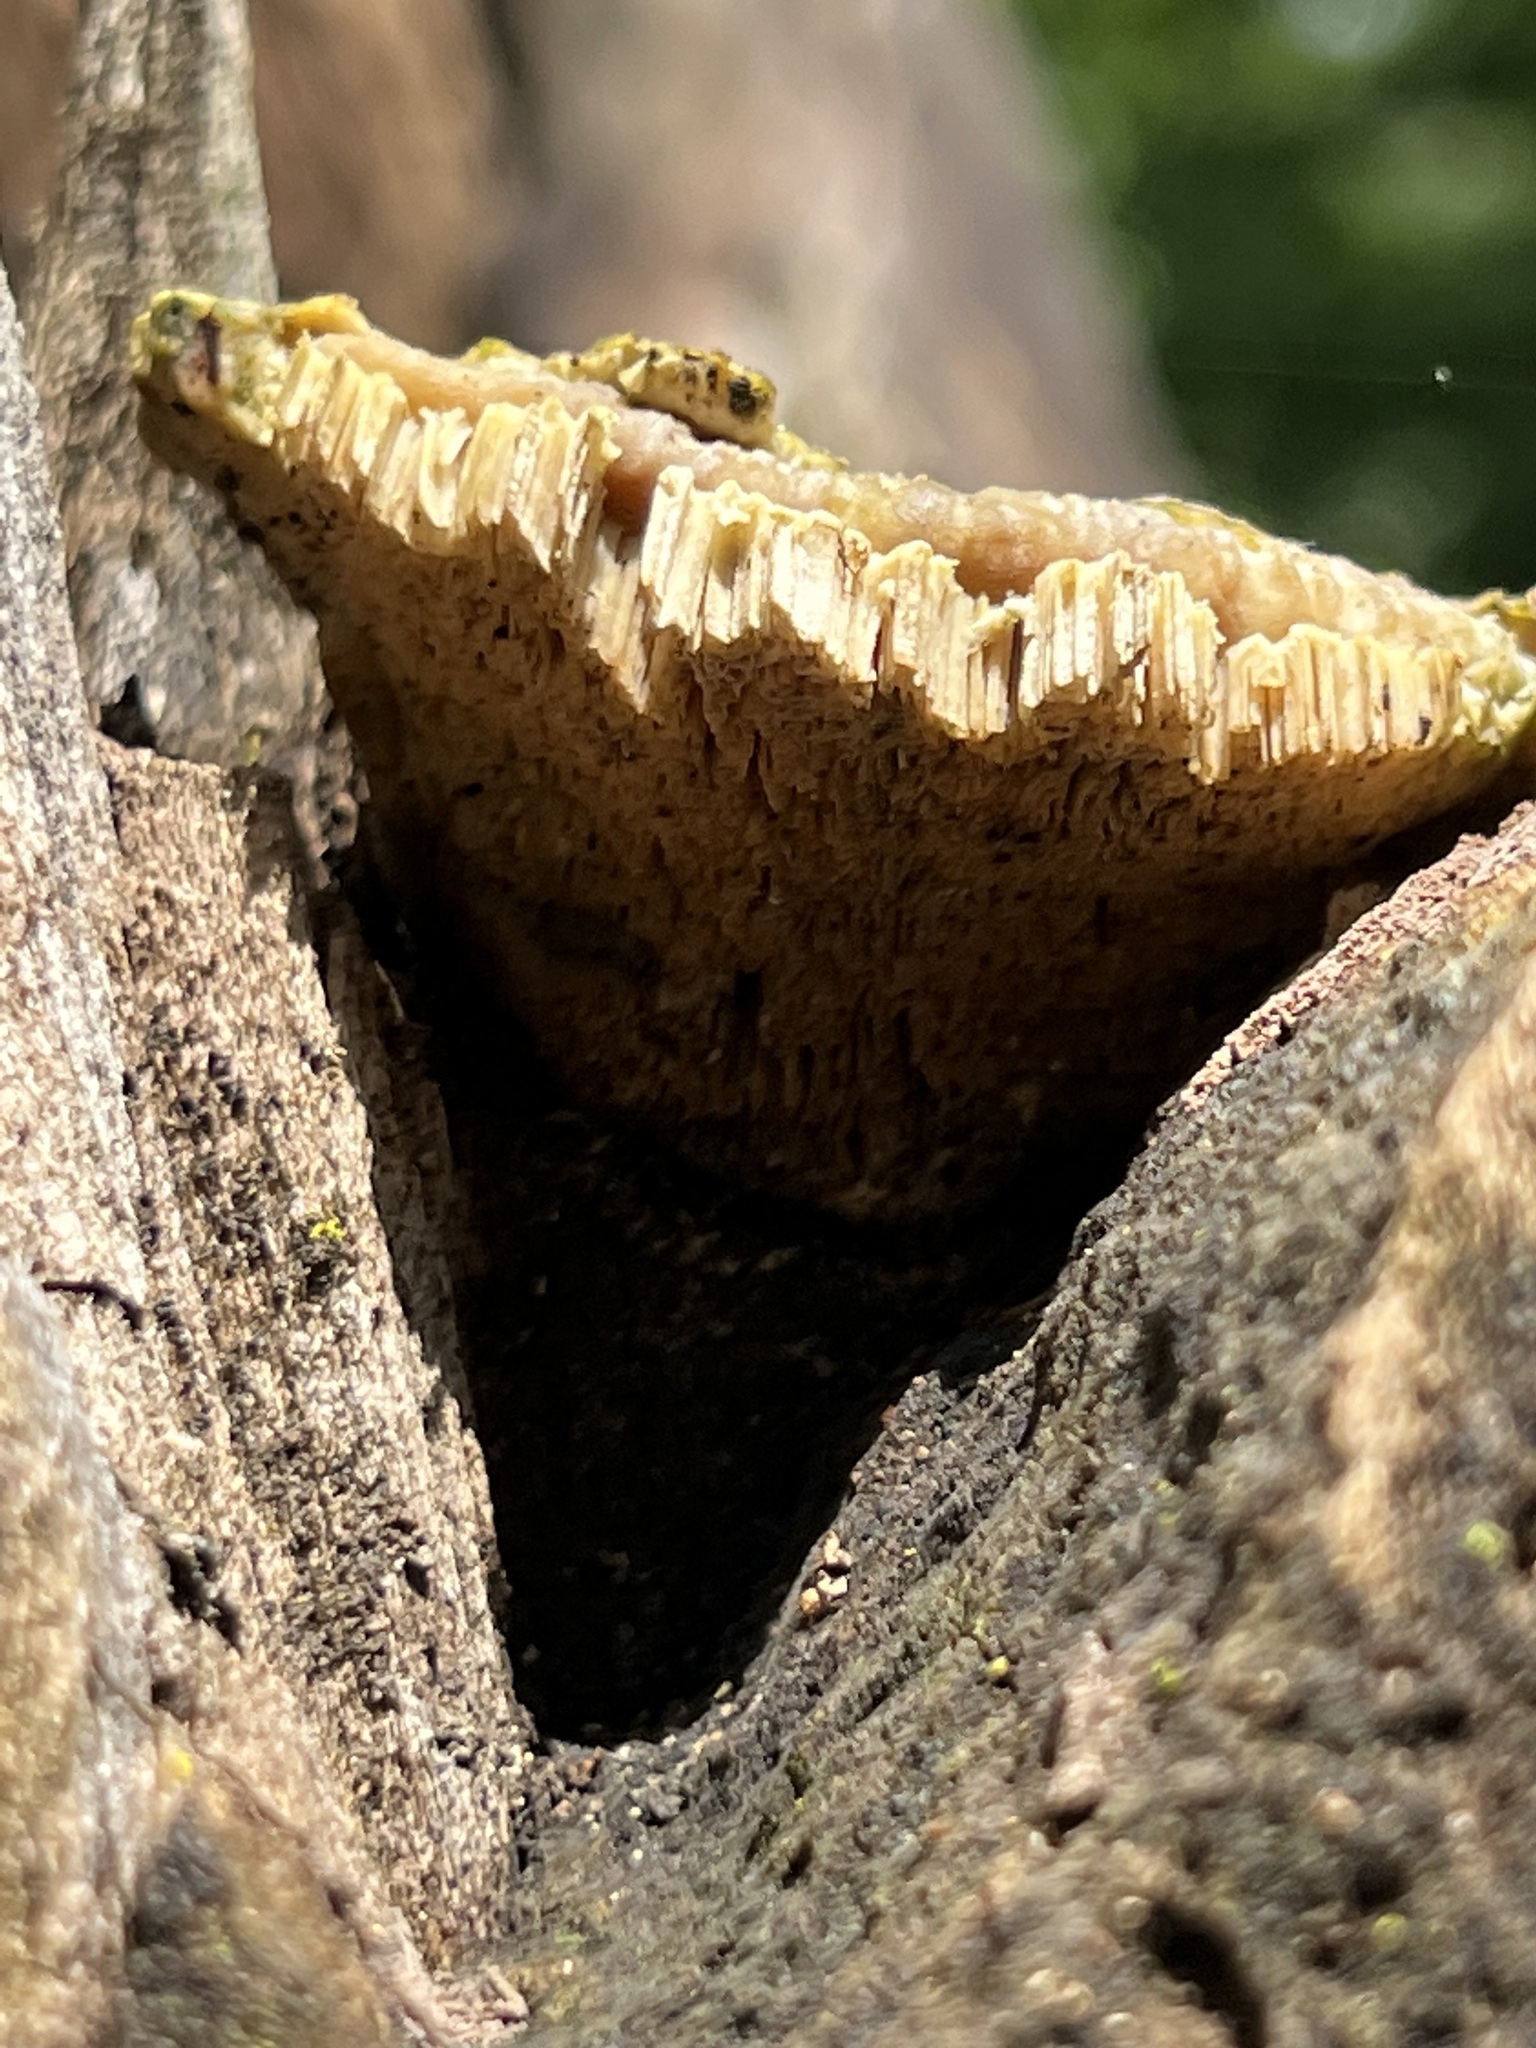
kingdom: Fungi
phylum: Basidiomycota
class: Agaricomycetes
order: Polyporales
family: Polyporaceae
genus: Trametes
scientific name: Trametes gibbosa
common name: Lumpy bracket
